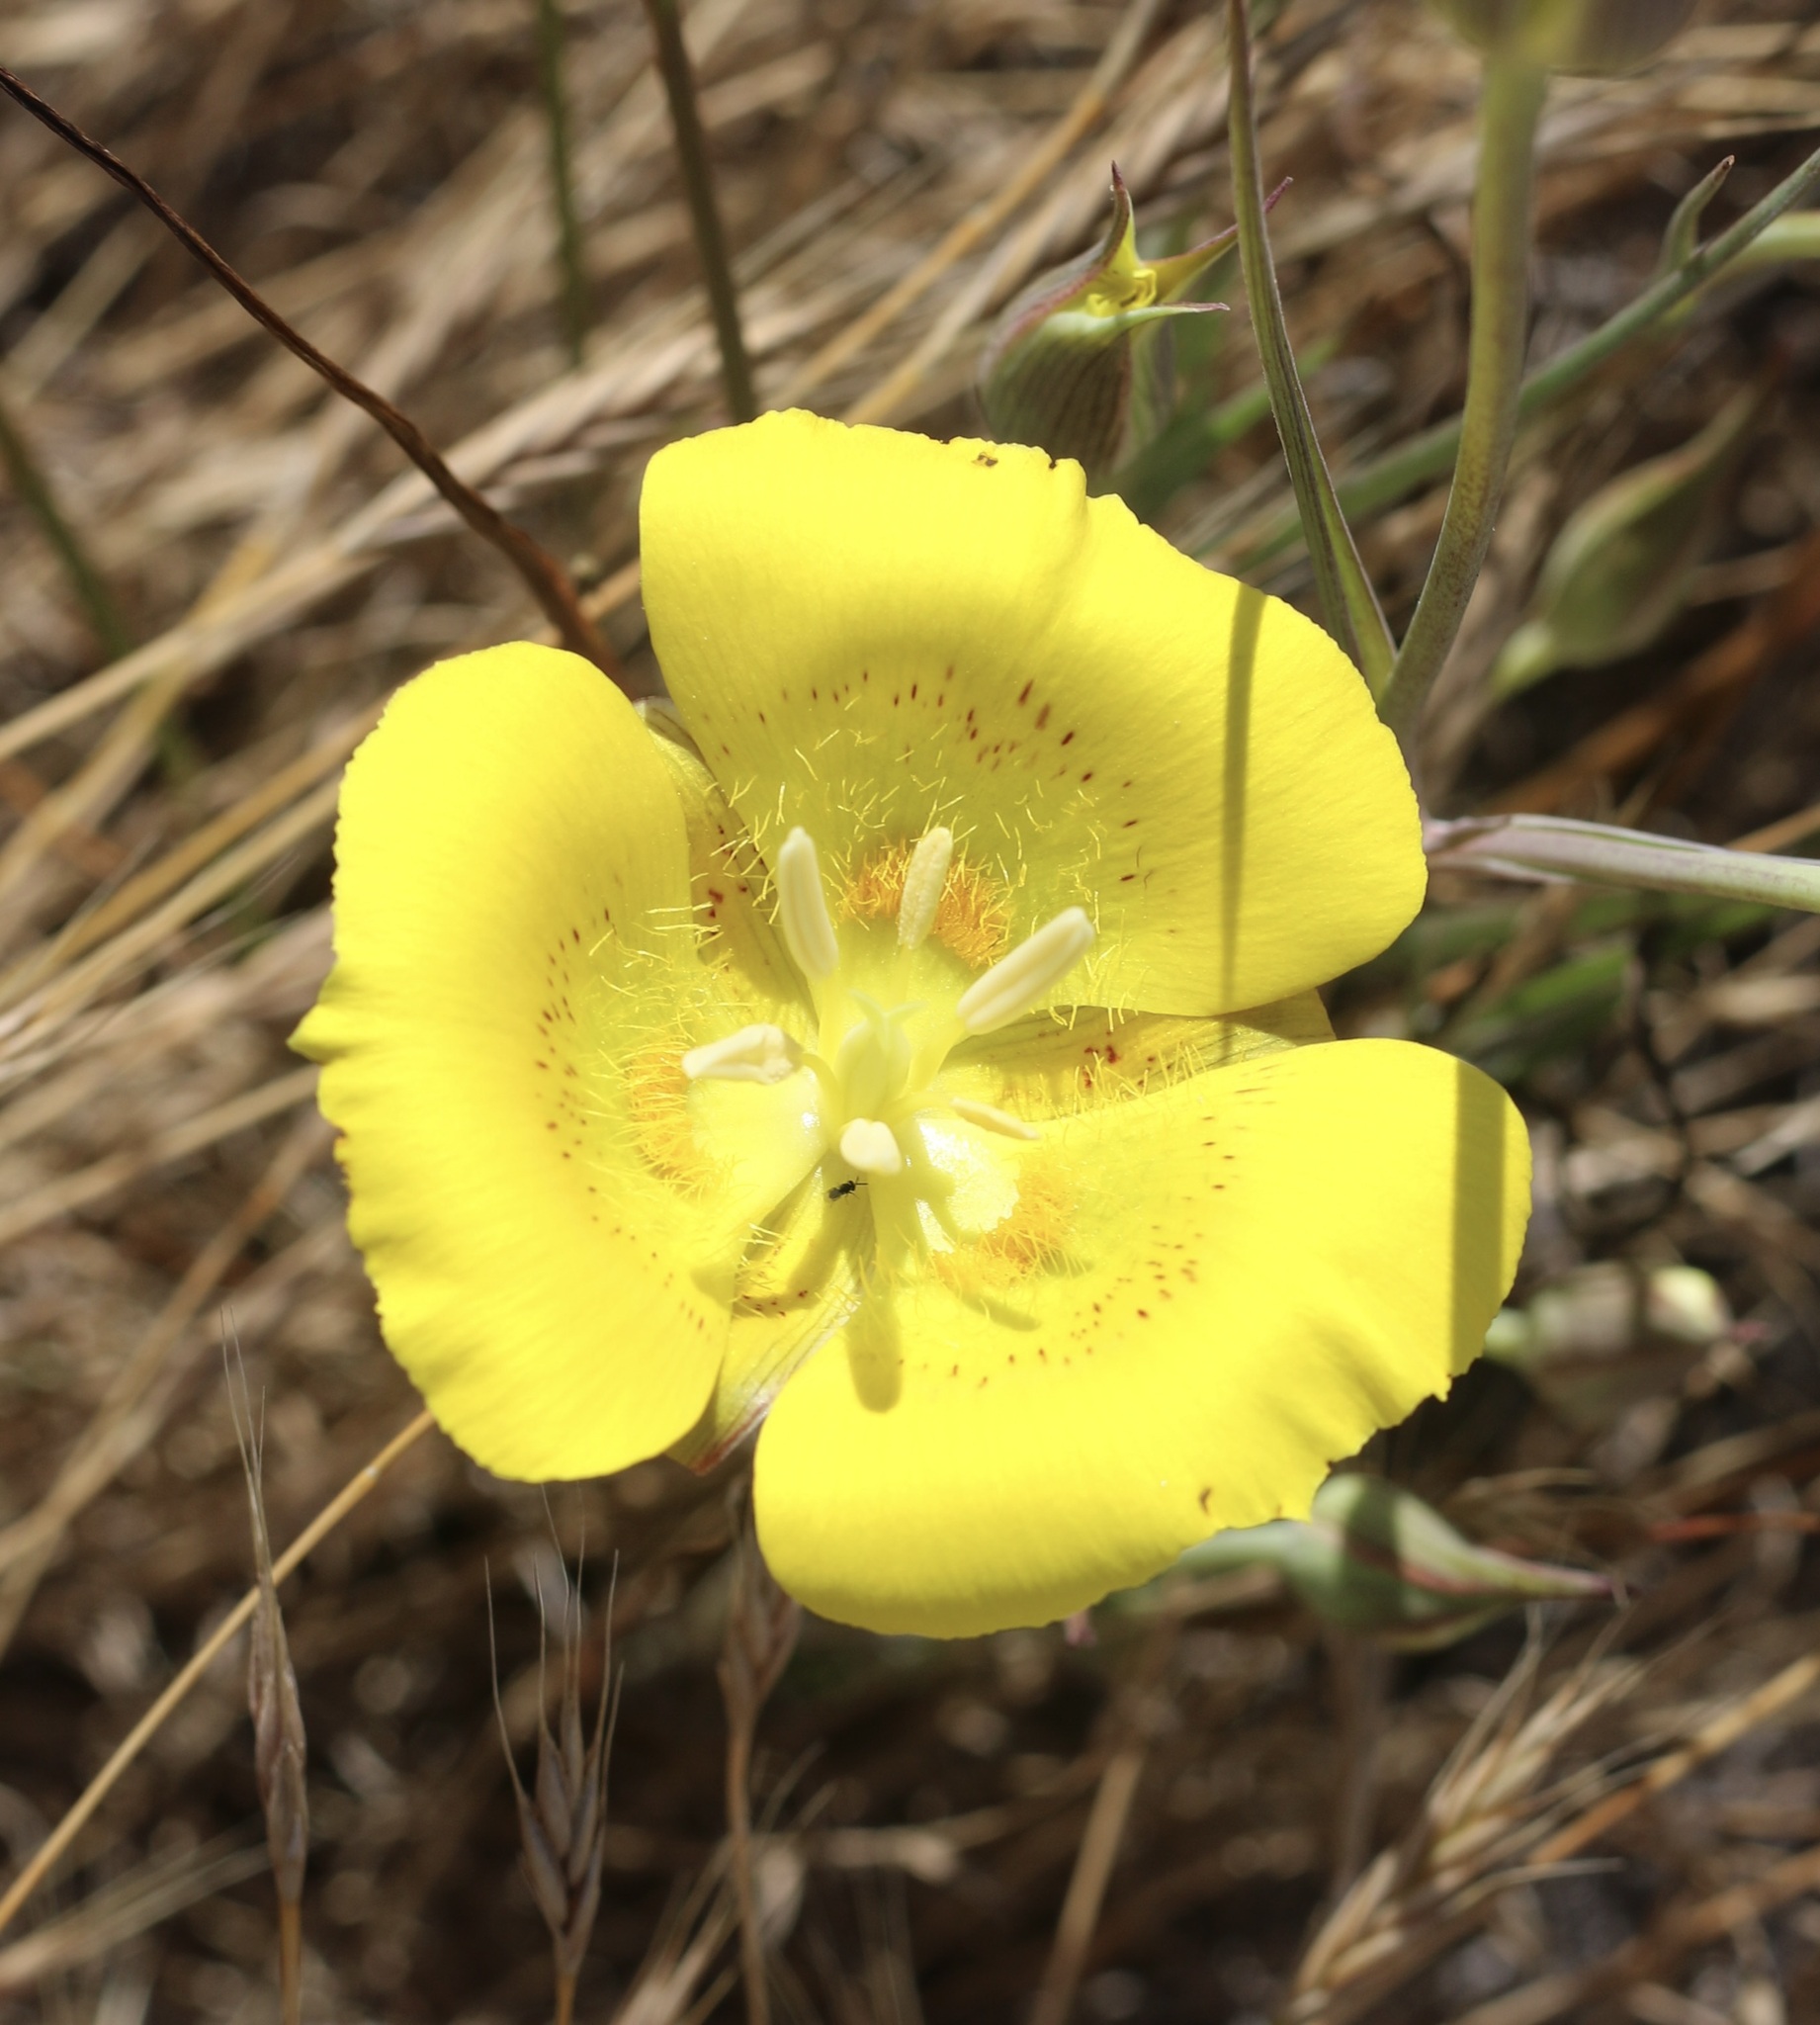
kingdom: Plantae
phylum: Tracheophyta
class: Liliopsida
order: Liliales
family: Liliaceae
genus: Calochortus
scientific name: Calochortus luteus
